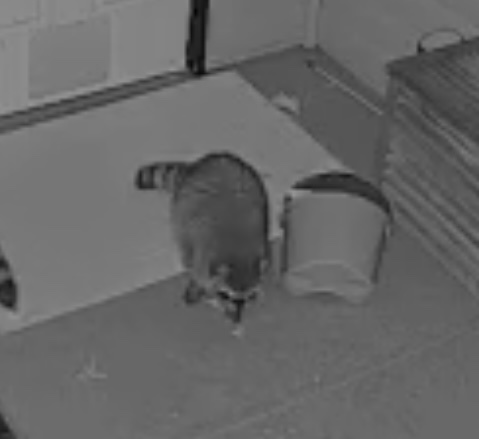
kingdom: Animalia
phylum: Chordata
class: Mammalia
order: Carnivora
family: Procyonidae
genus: Procyon
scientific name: Procyon lotor
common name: Raccoon
